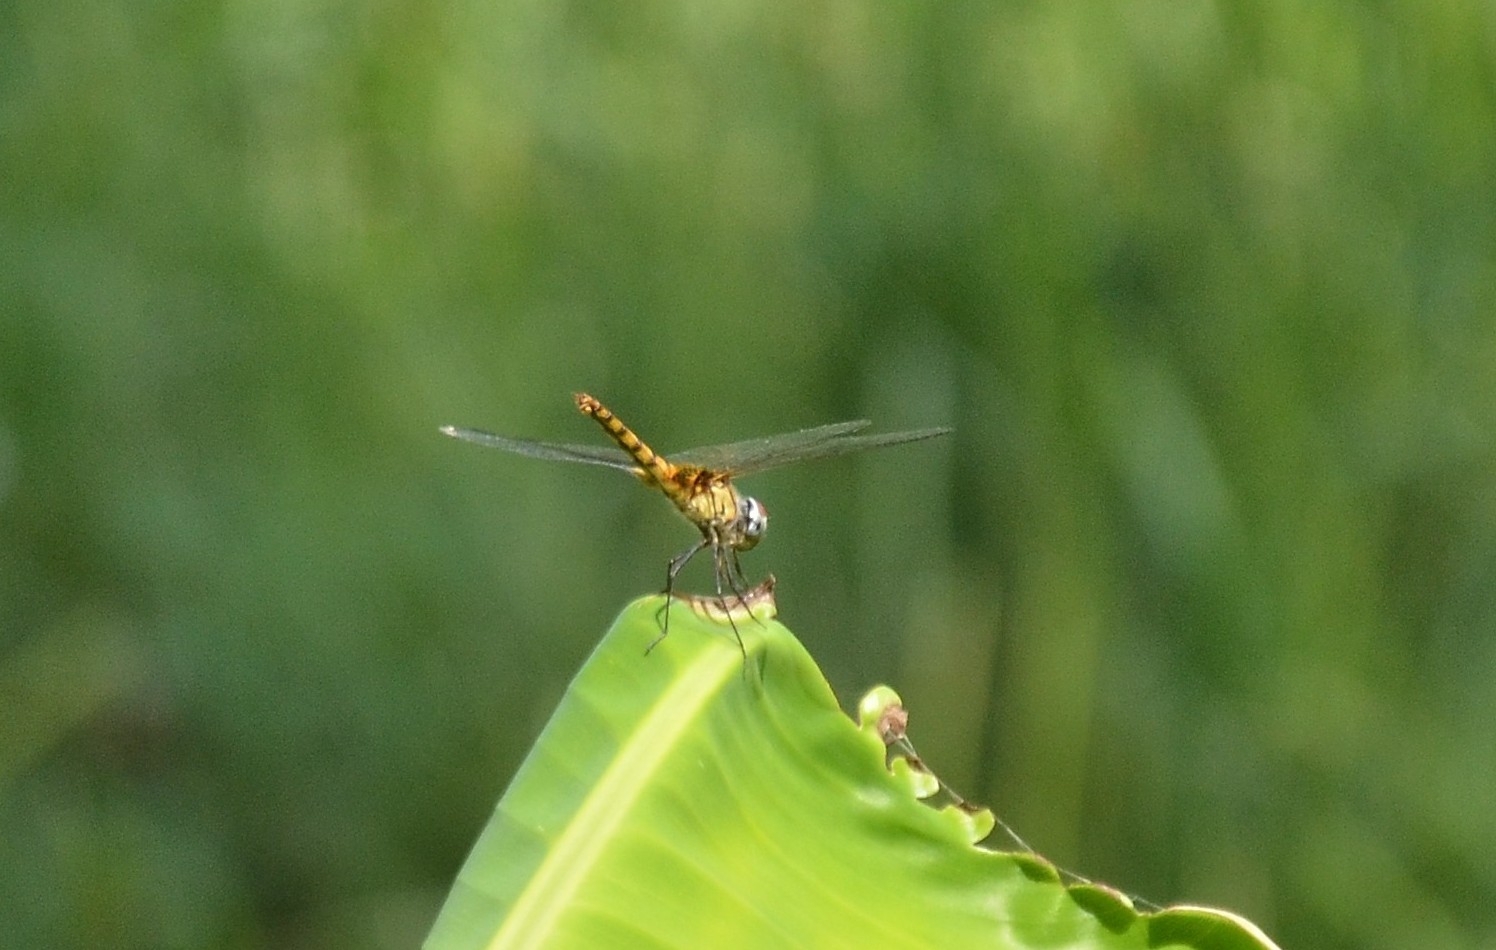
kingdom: Animalia
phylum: Arthropoda
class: Insecta
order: Odonata
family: Libellulidae
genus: Urothemis
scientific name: Urothemis signata
